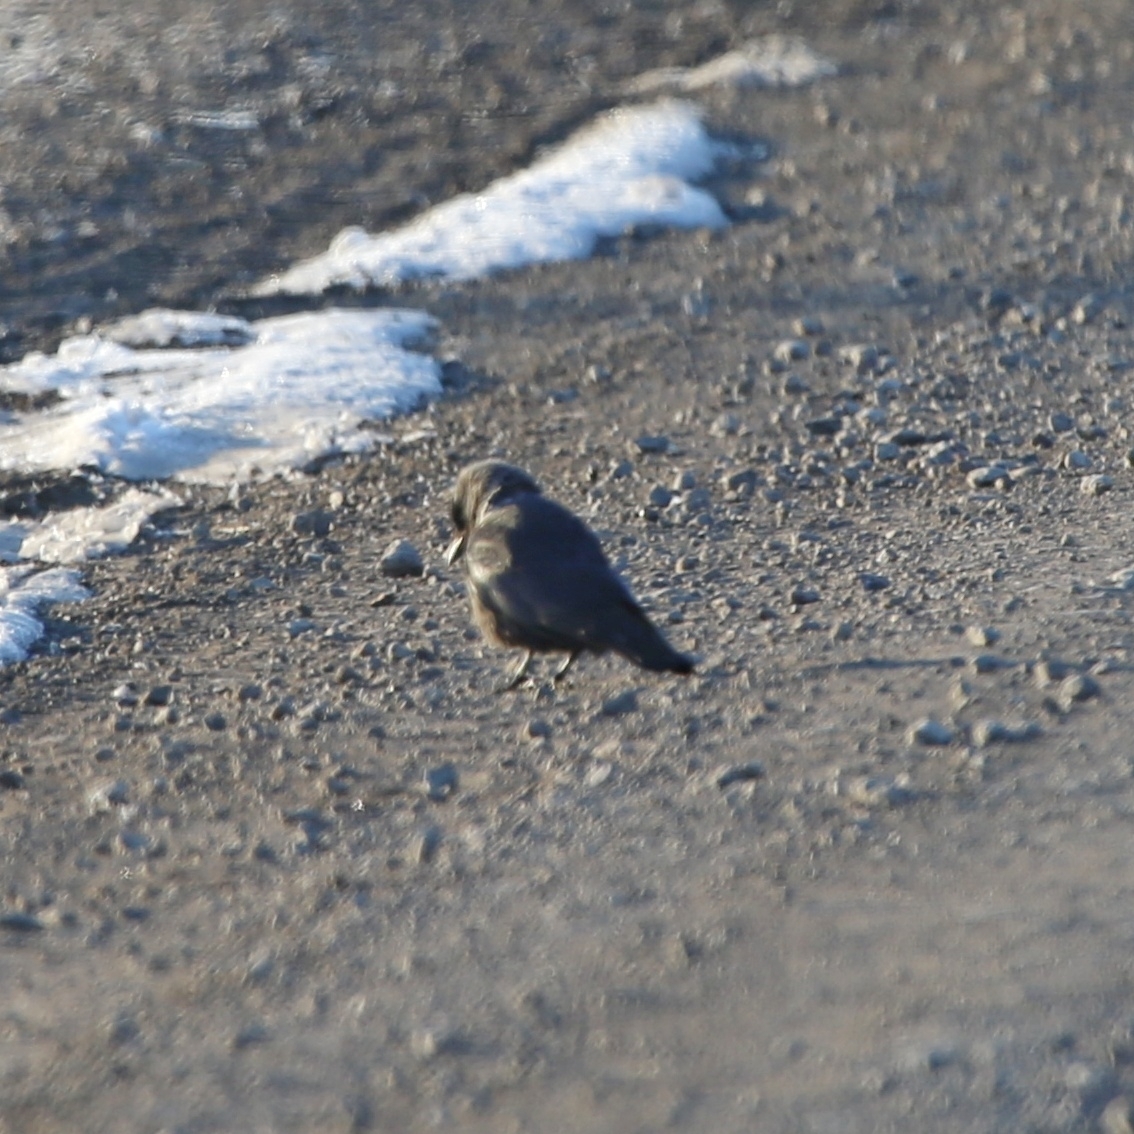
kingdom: Animalia
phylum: Chordata
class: Aves
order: Passeriformes
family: Corvidae
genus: Coloeus
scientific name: Coloeus monedula
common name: Western jackdaw
